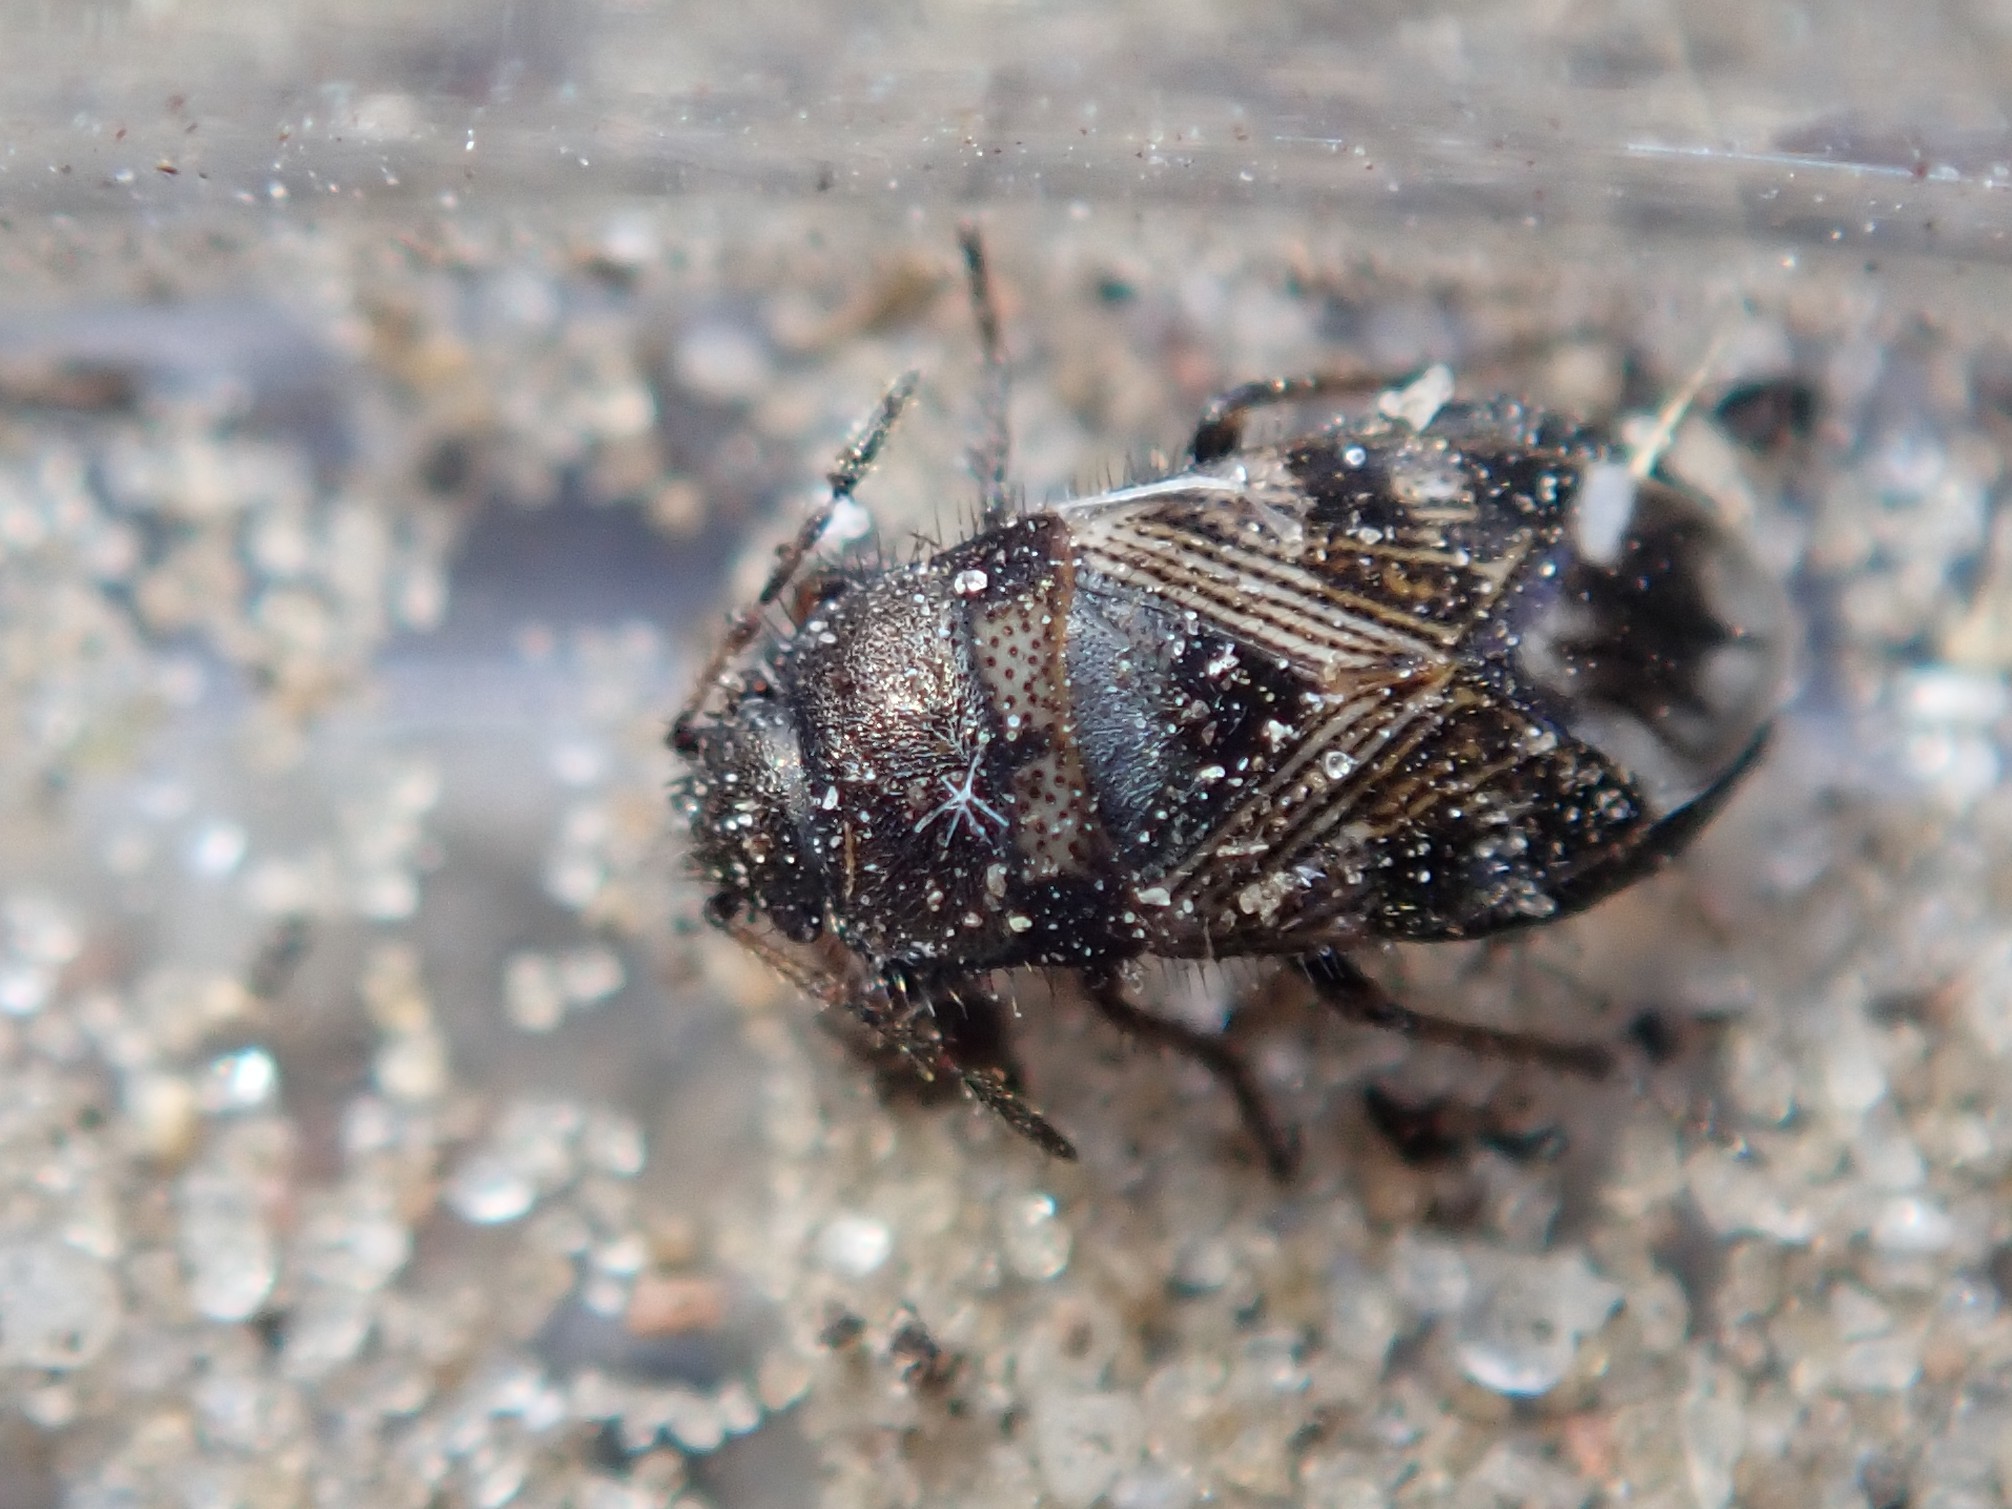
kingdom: Animalia
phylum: Arthropoda
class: Insecta
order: Hemiptera
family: Rhyparochromidae
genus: Pionosomus
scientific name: Pionosomus varius
